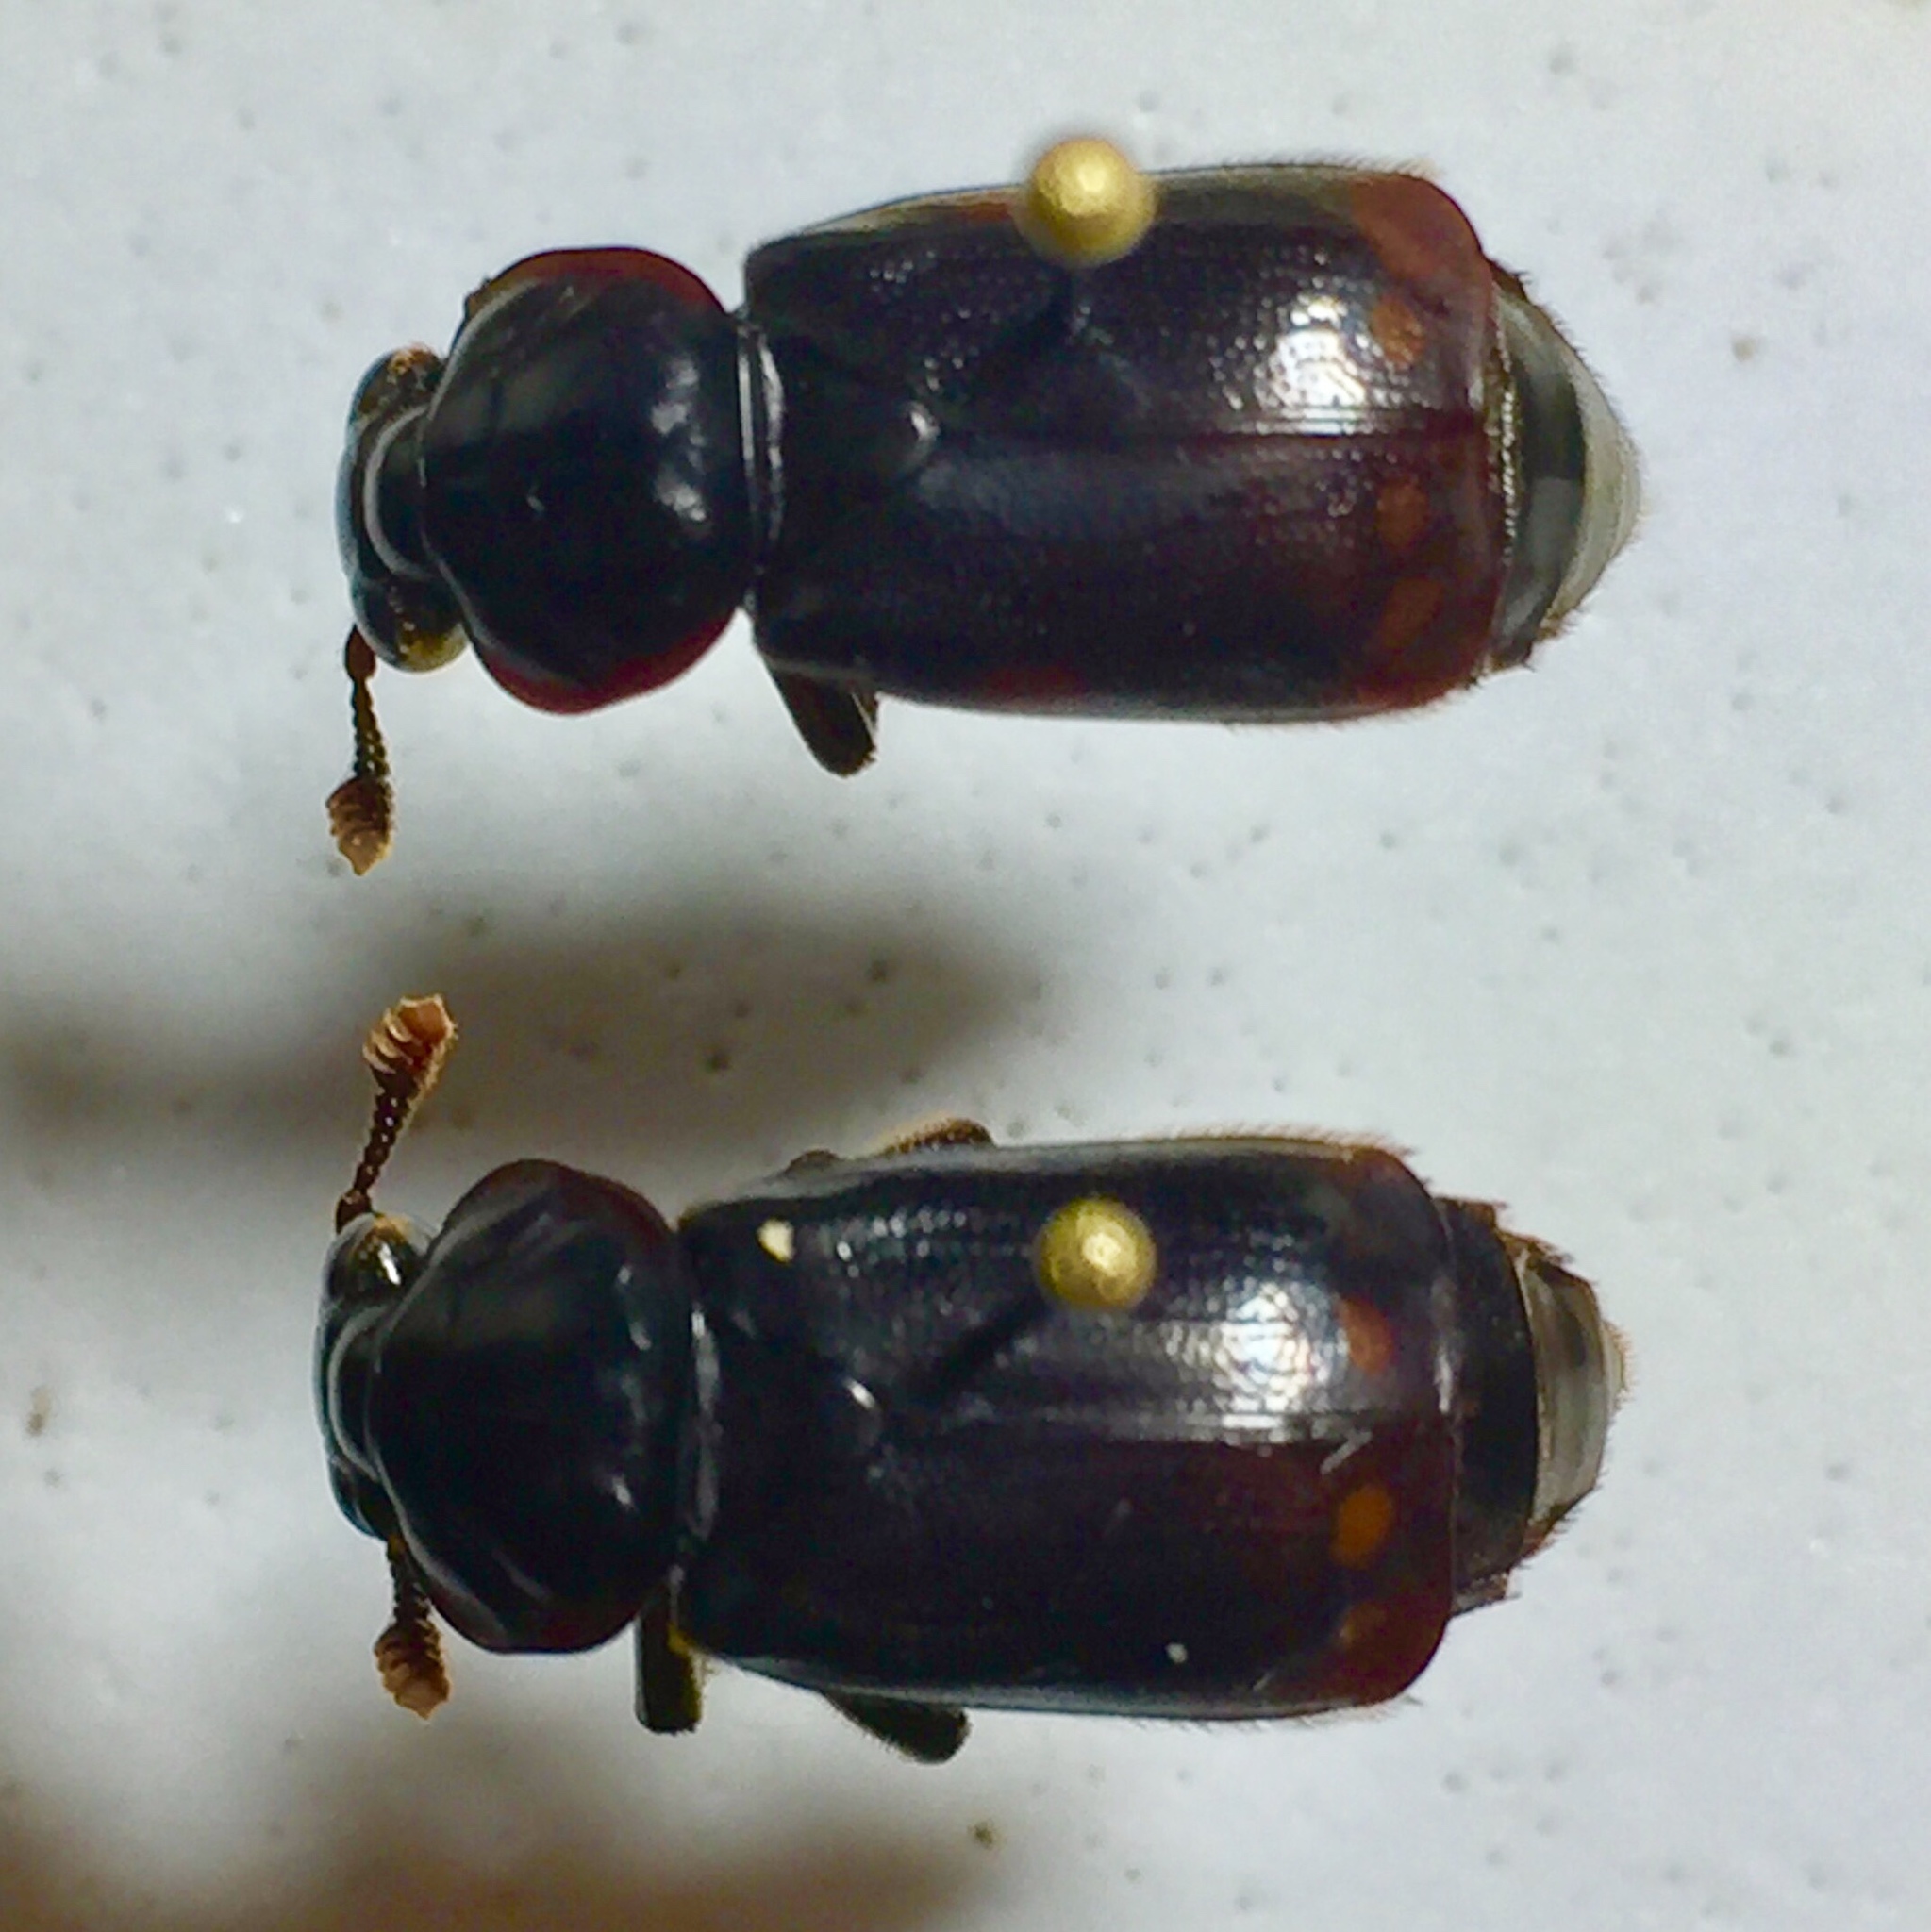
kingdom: Animalia
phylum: Arthropoda
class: Insecta
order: Coleoptera
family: Staphylinidae
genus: Nicrophorus
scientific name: Nicrophorus pustulatus
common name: Pustulated carrion beetle
